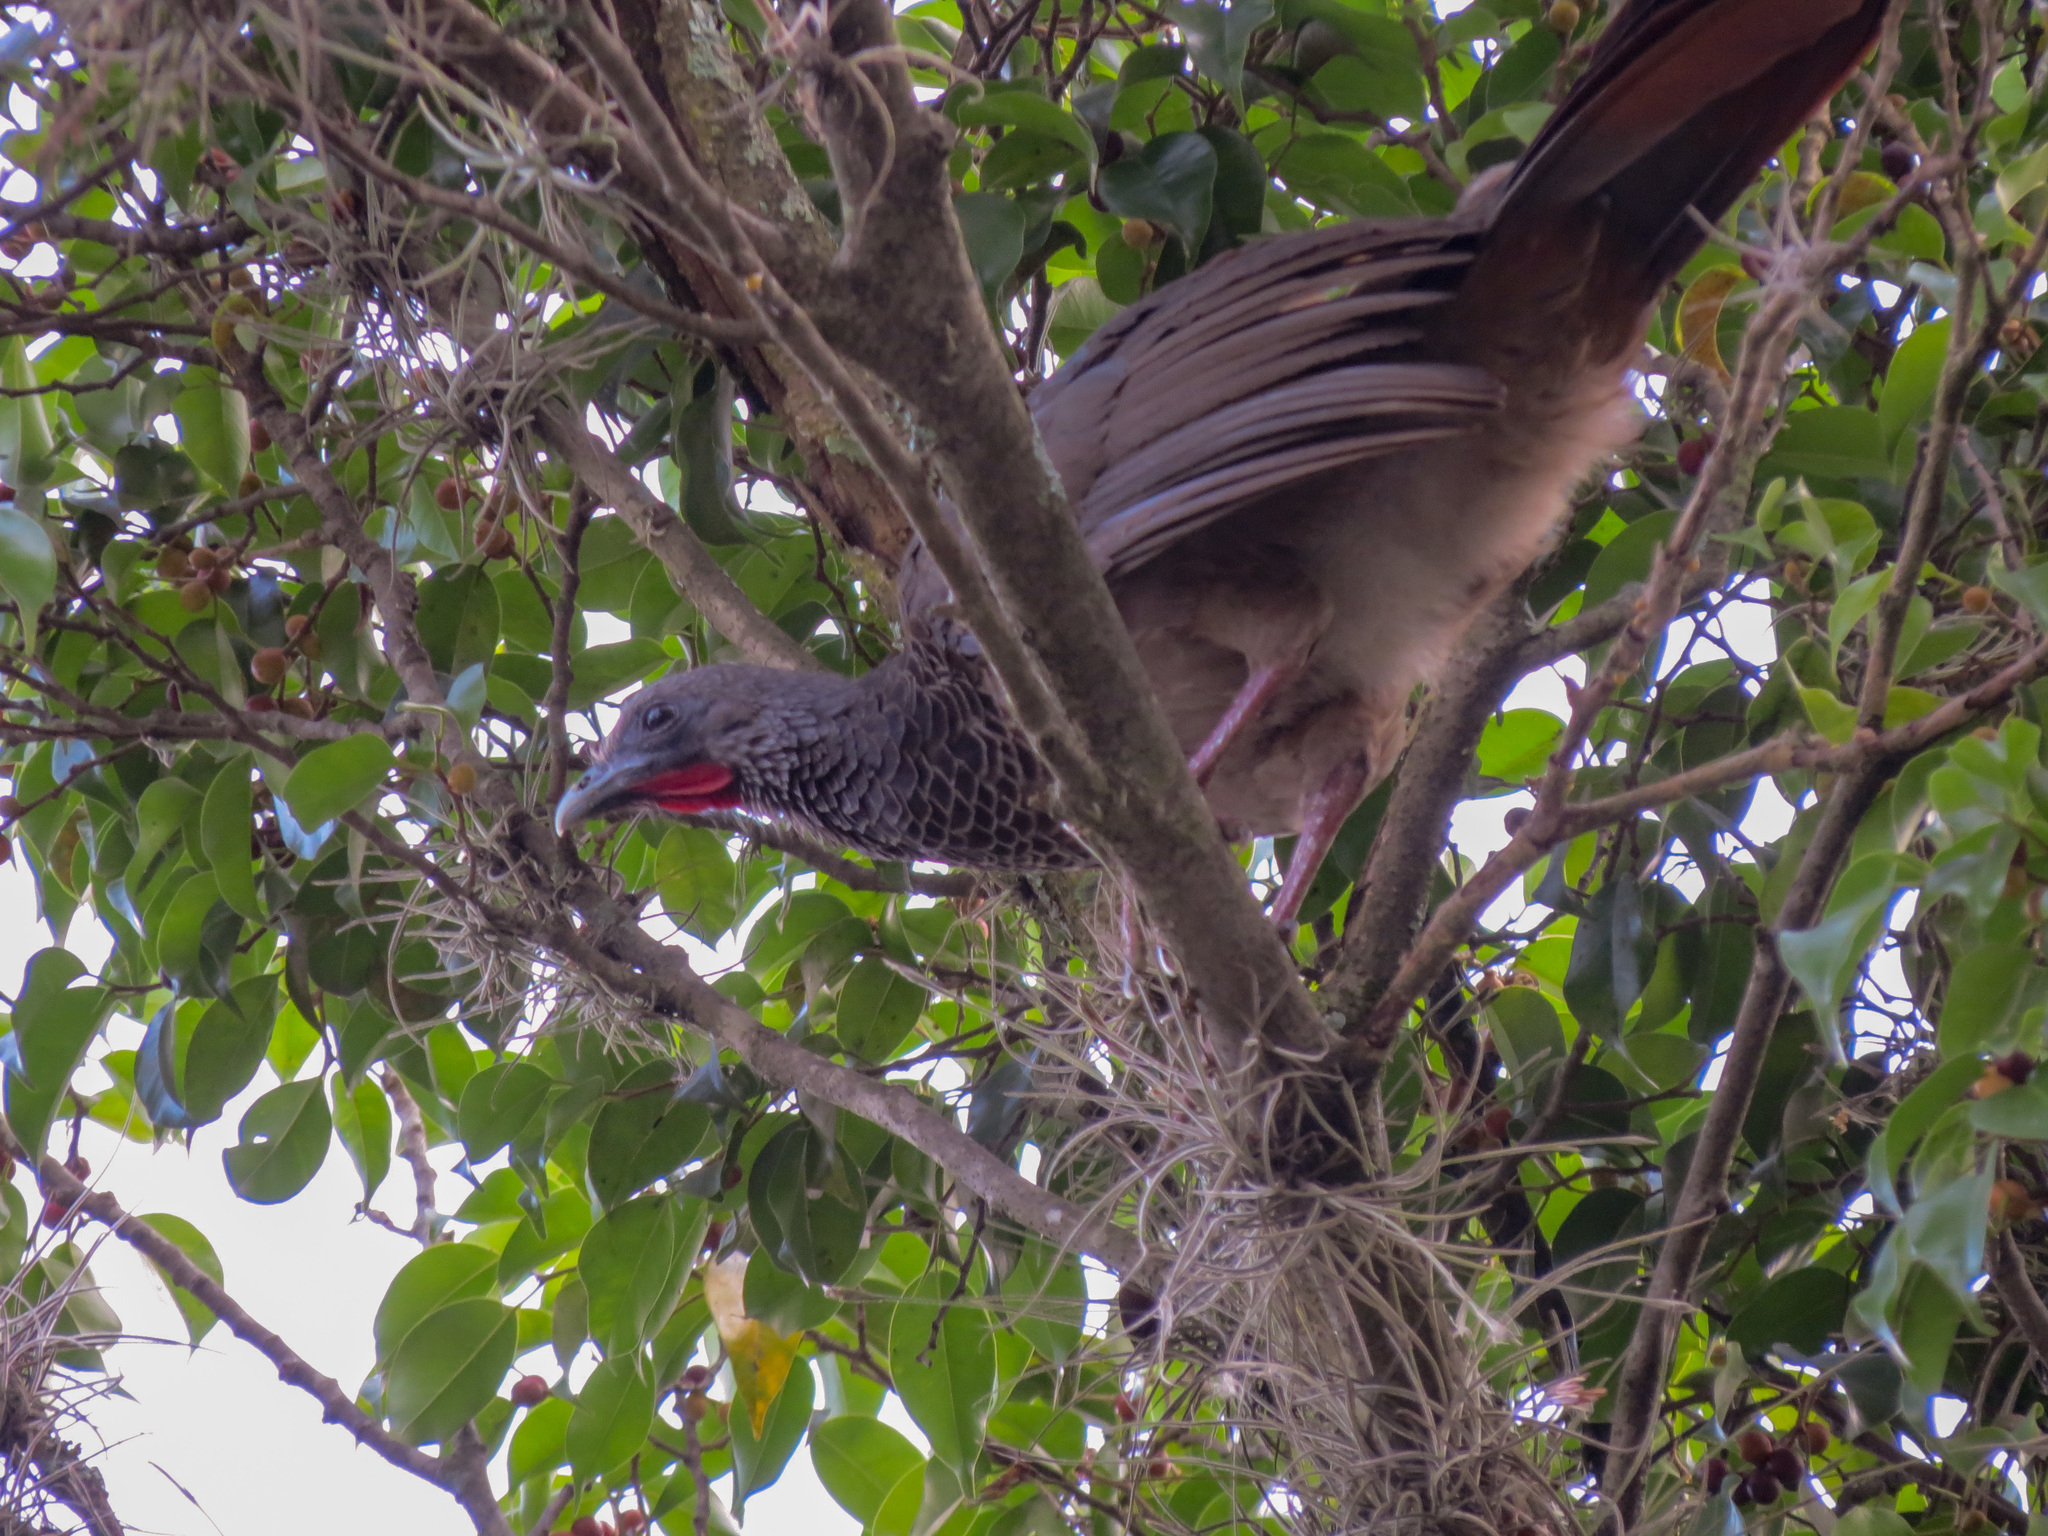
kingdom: Animalia
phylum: Chordata
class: Aves
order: Galliformes
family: Cracidae
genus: Ortalis
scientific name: Ortalis columbiana
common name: Colombian chachalaca
